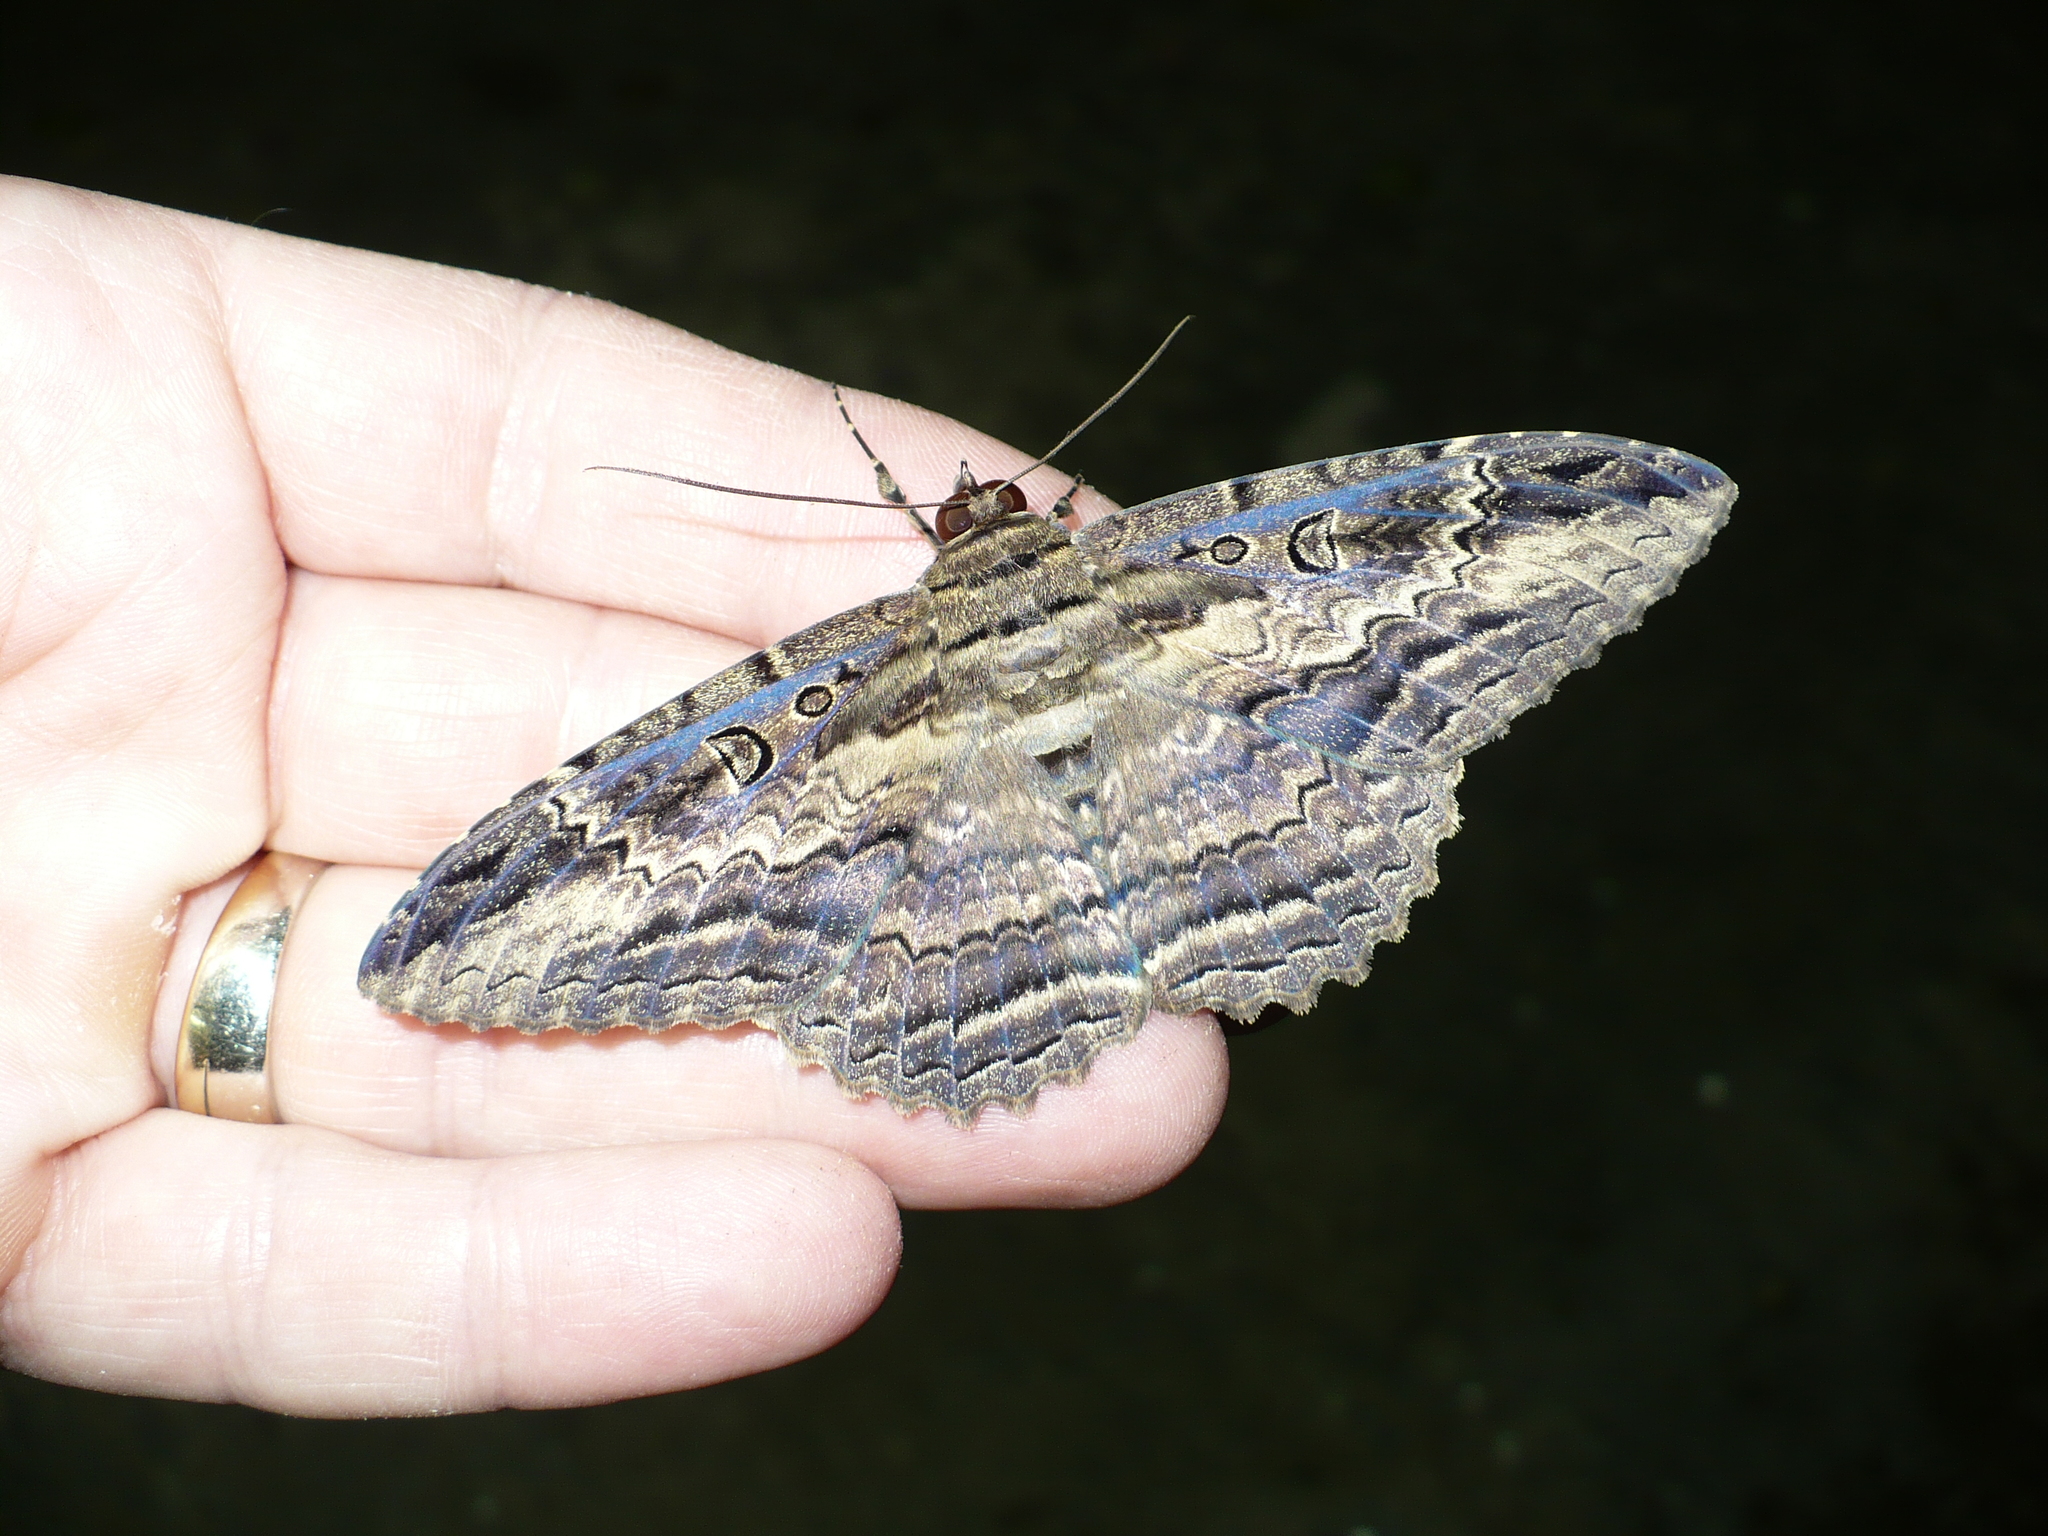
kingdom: Animalia
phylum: Arthropoda
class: Insecta
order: Lepidoptera
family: Erebidae
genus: Feigeria
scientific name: Feigeria buteo
